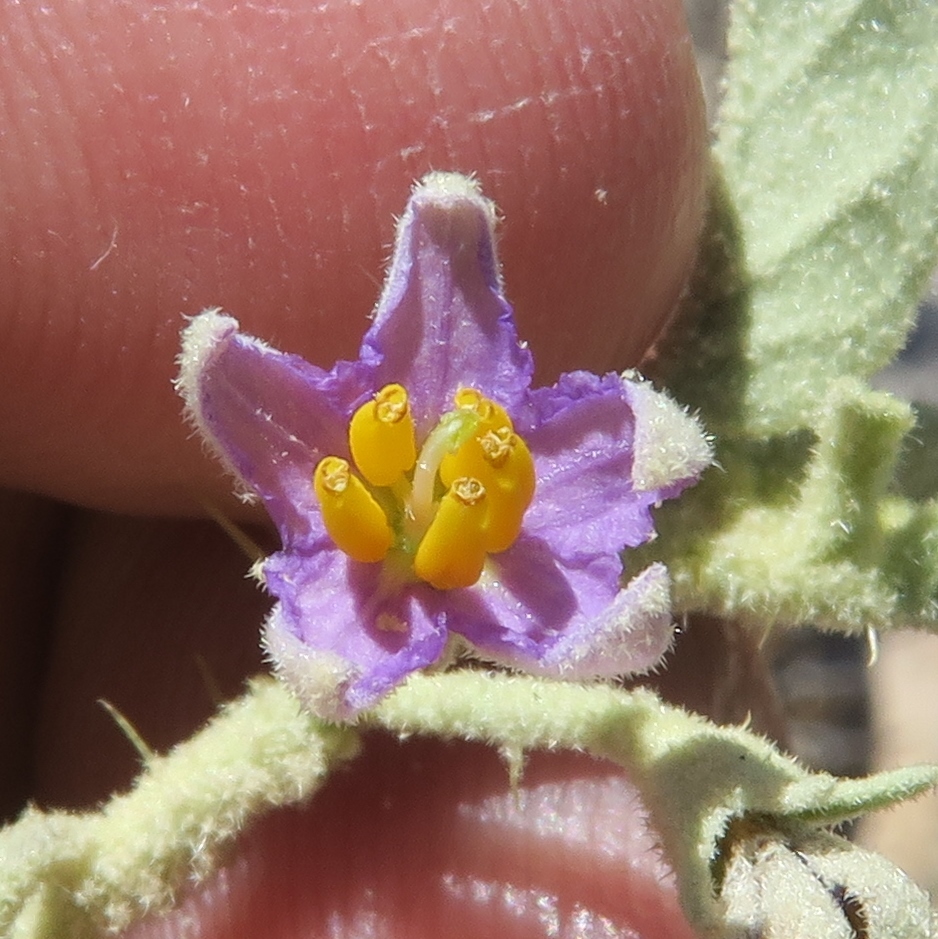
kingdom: Plantae
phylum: Tracheophyta
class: Magnoliopsida
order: Solanales
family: Solanaceae
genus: Solanum
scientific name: Solanum burchellii
